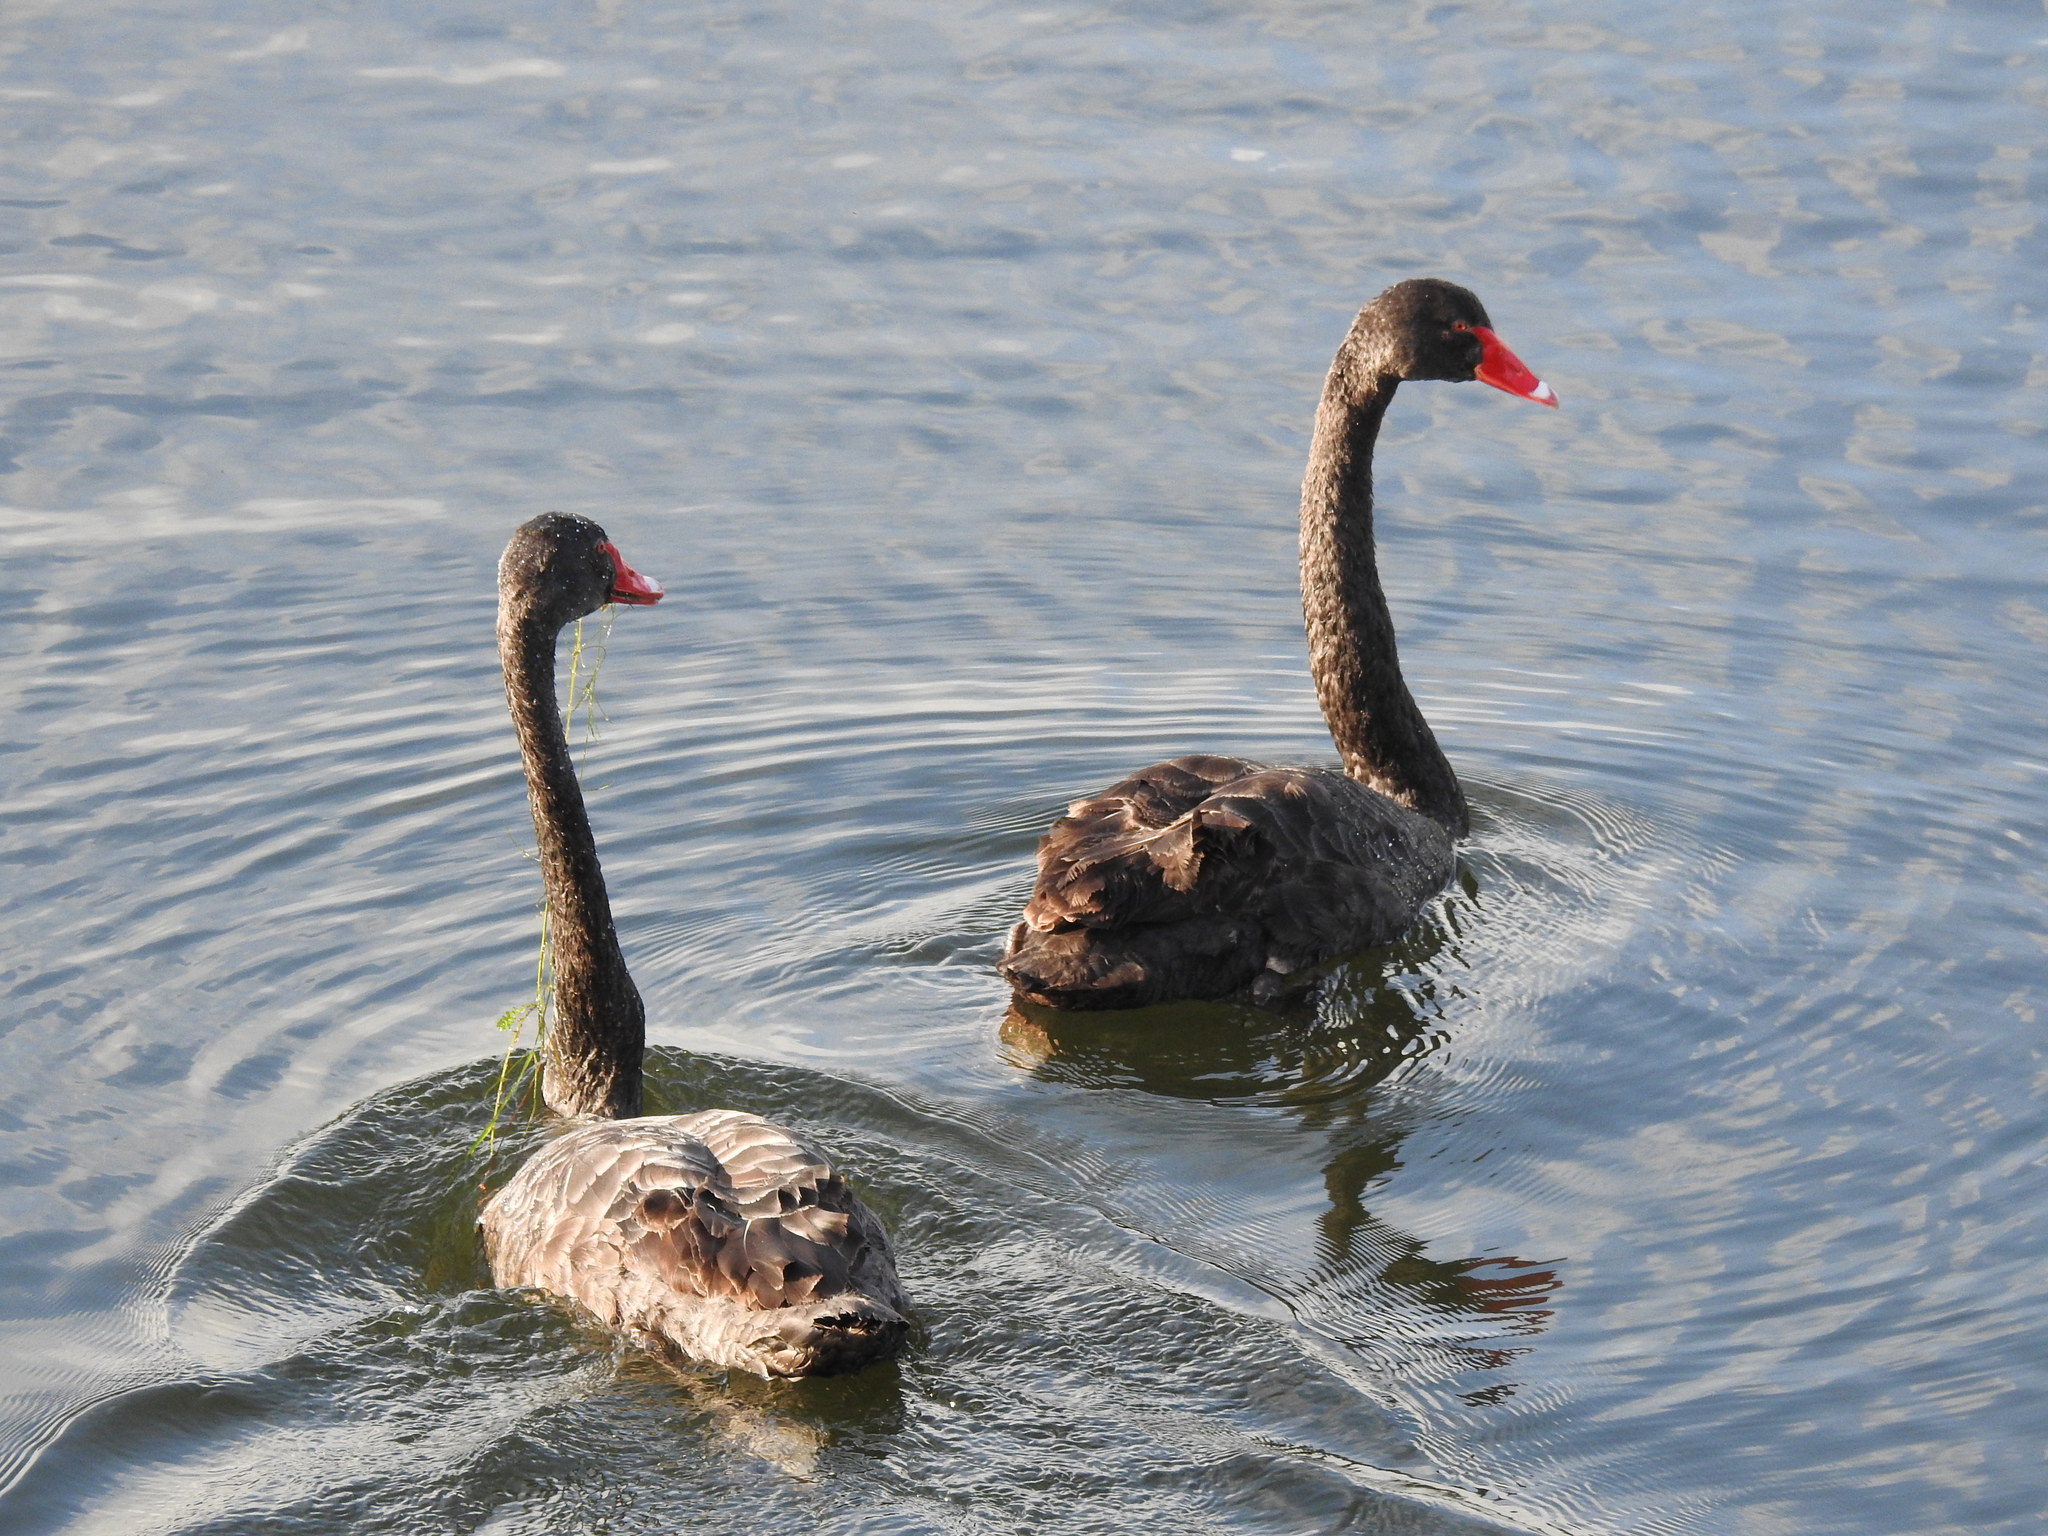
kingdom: Animalia
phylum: Chordata
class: Aves
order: Anseriformes
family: Anatidae
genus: Cygnus
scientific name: Cygnus atratus
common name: Black swan
